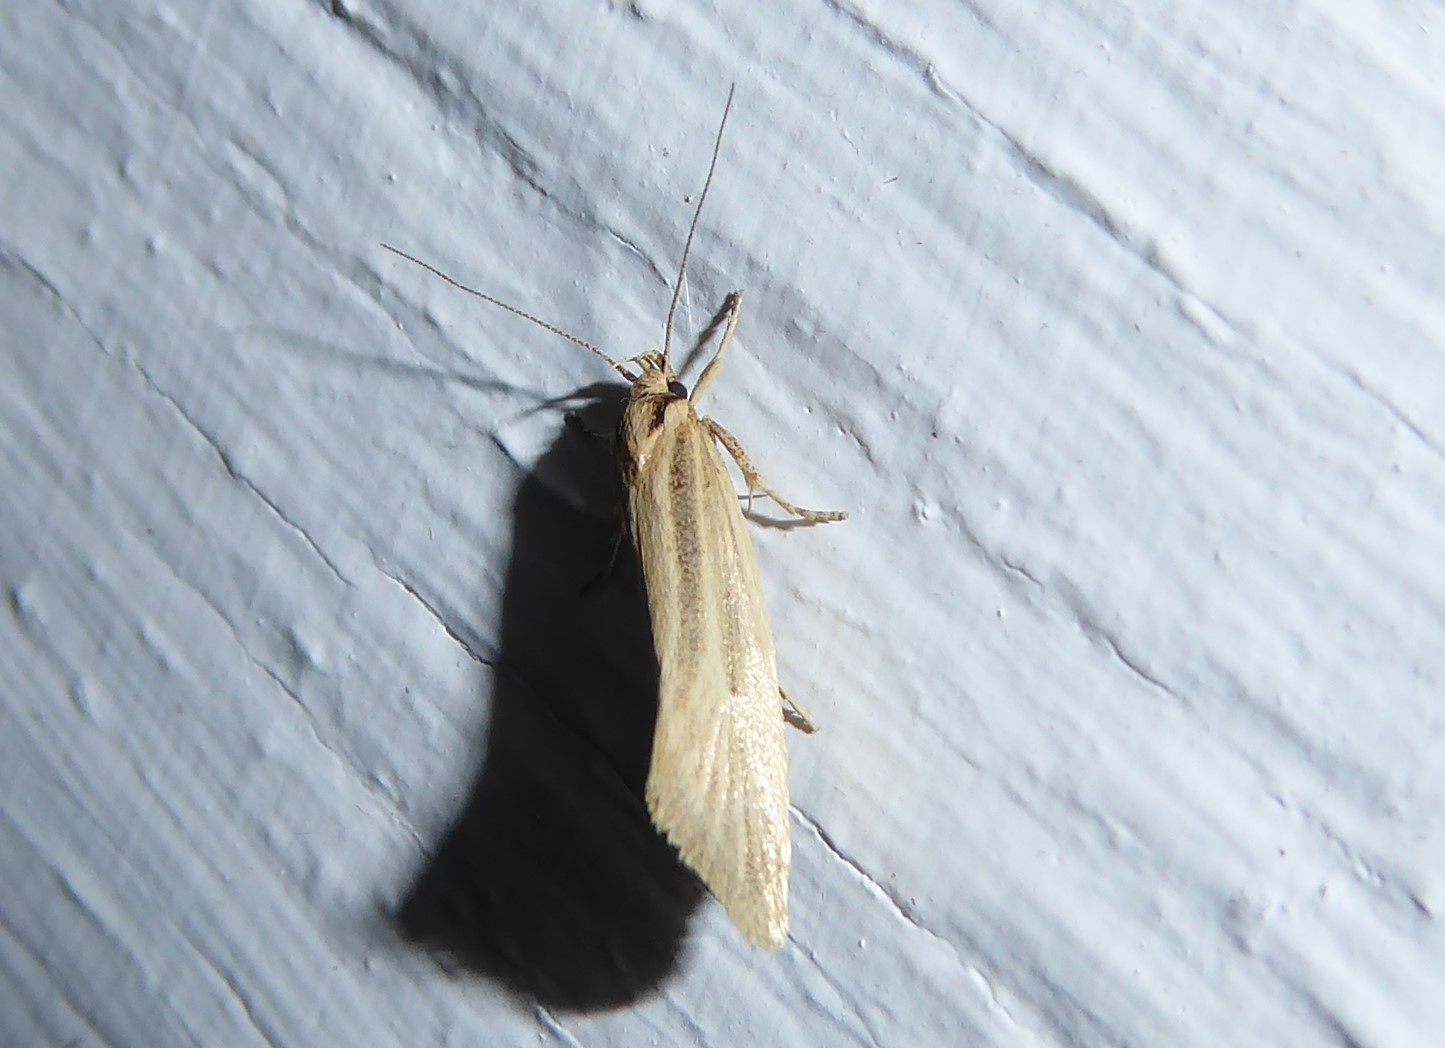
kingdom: Animalia
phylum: Arthropoda
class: Insecta
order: Lepidoptera
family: Oecophoridae
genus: Tingena
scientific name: Tingena chloradelpha
